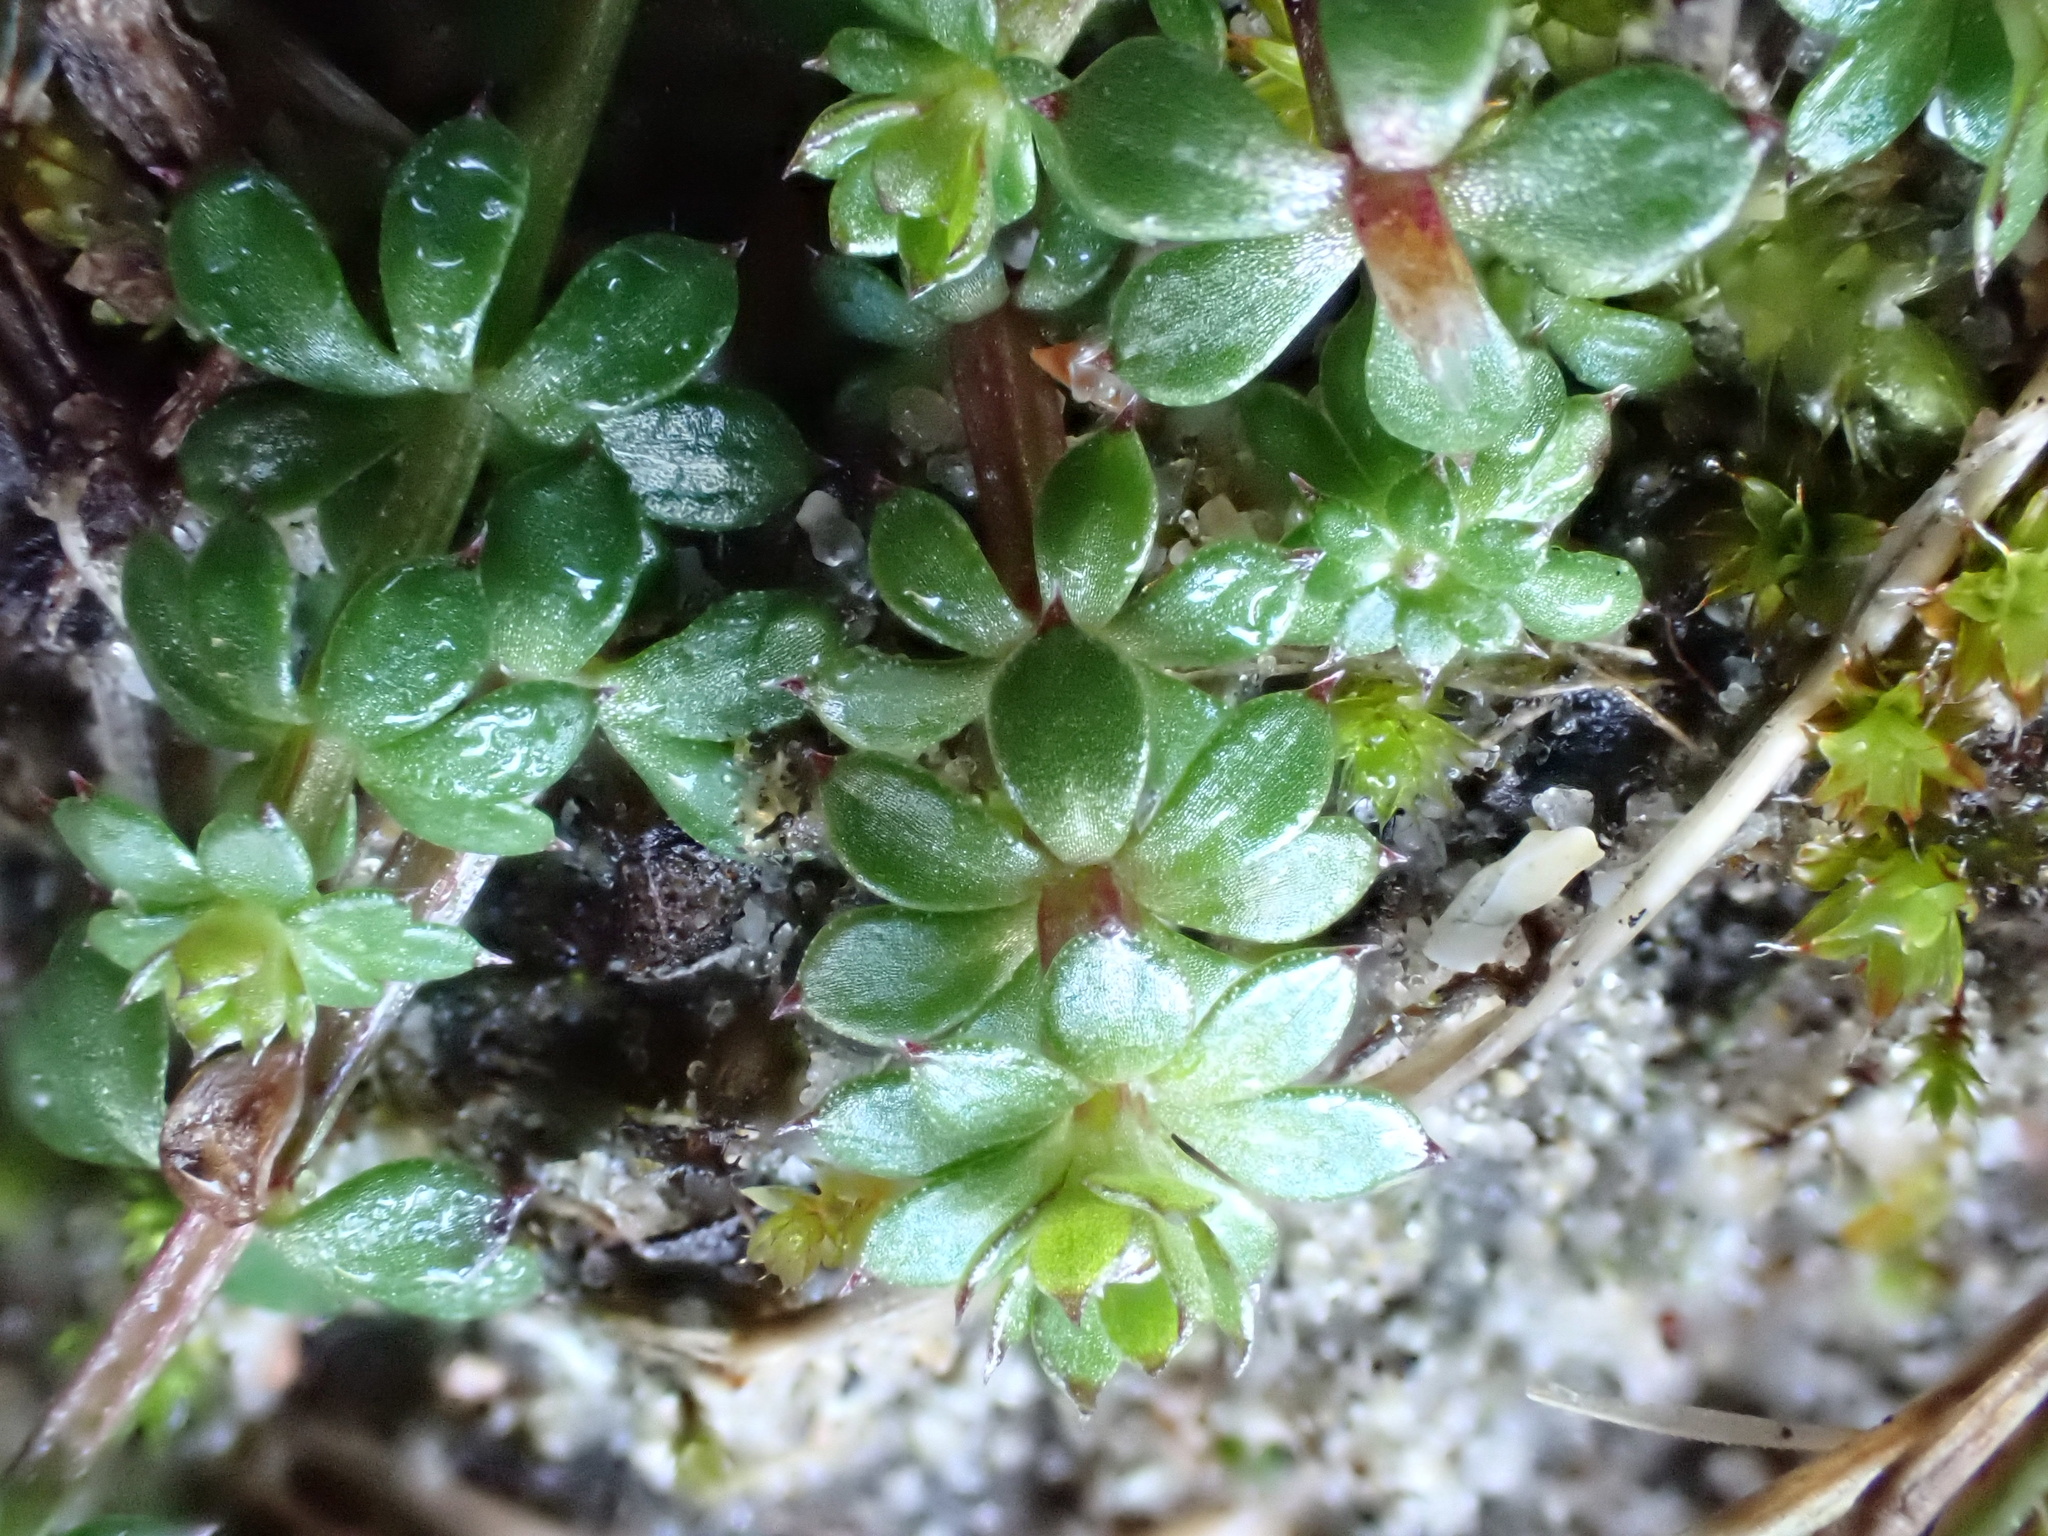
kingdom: Plantae
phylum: Tracheophyta
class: Magnoliopsida
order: Gentianales
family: Rubiaceae
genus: Galium
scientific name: Galium mollugo
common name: Hedge bedstraw
